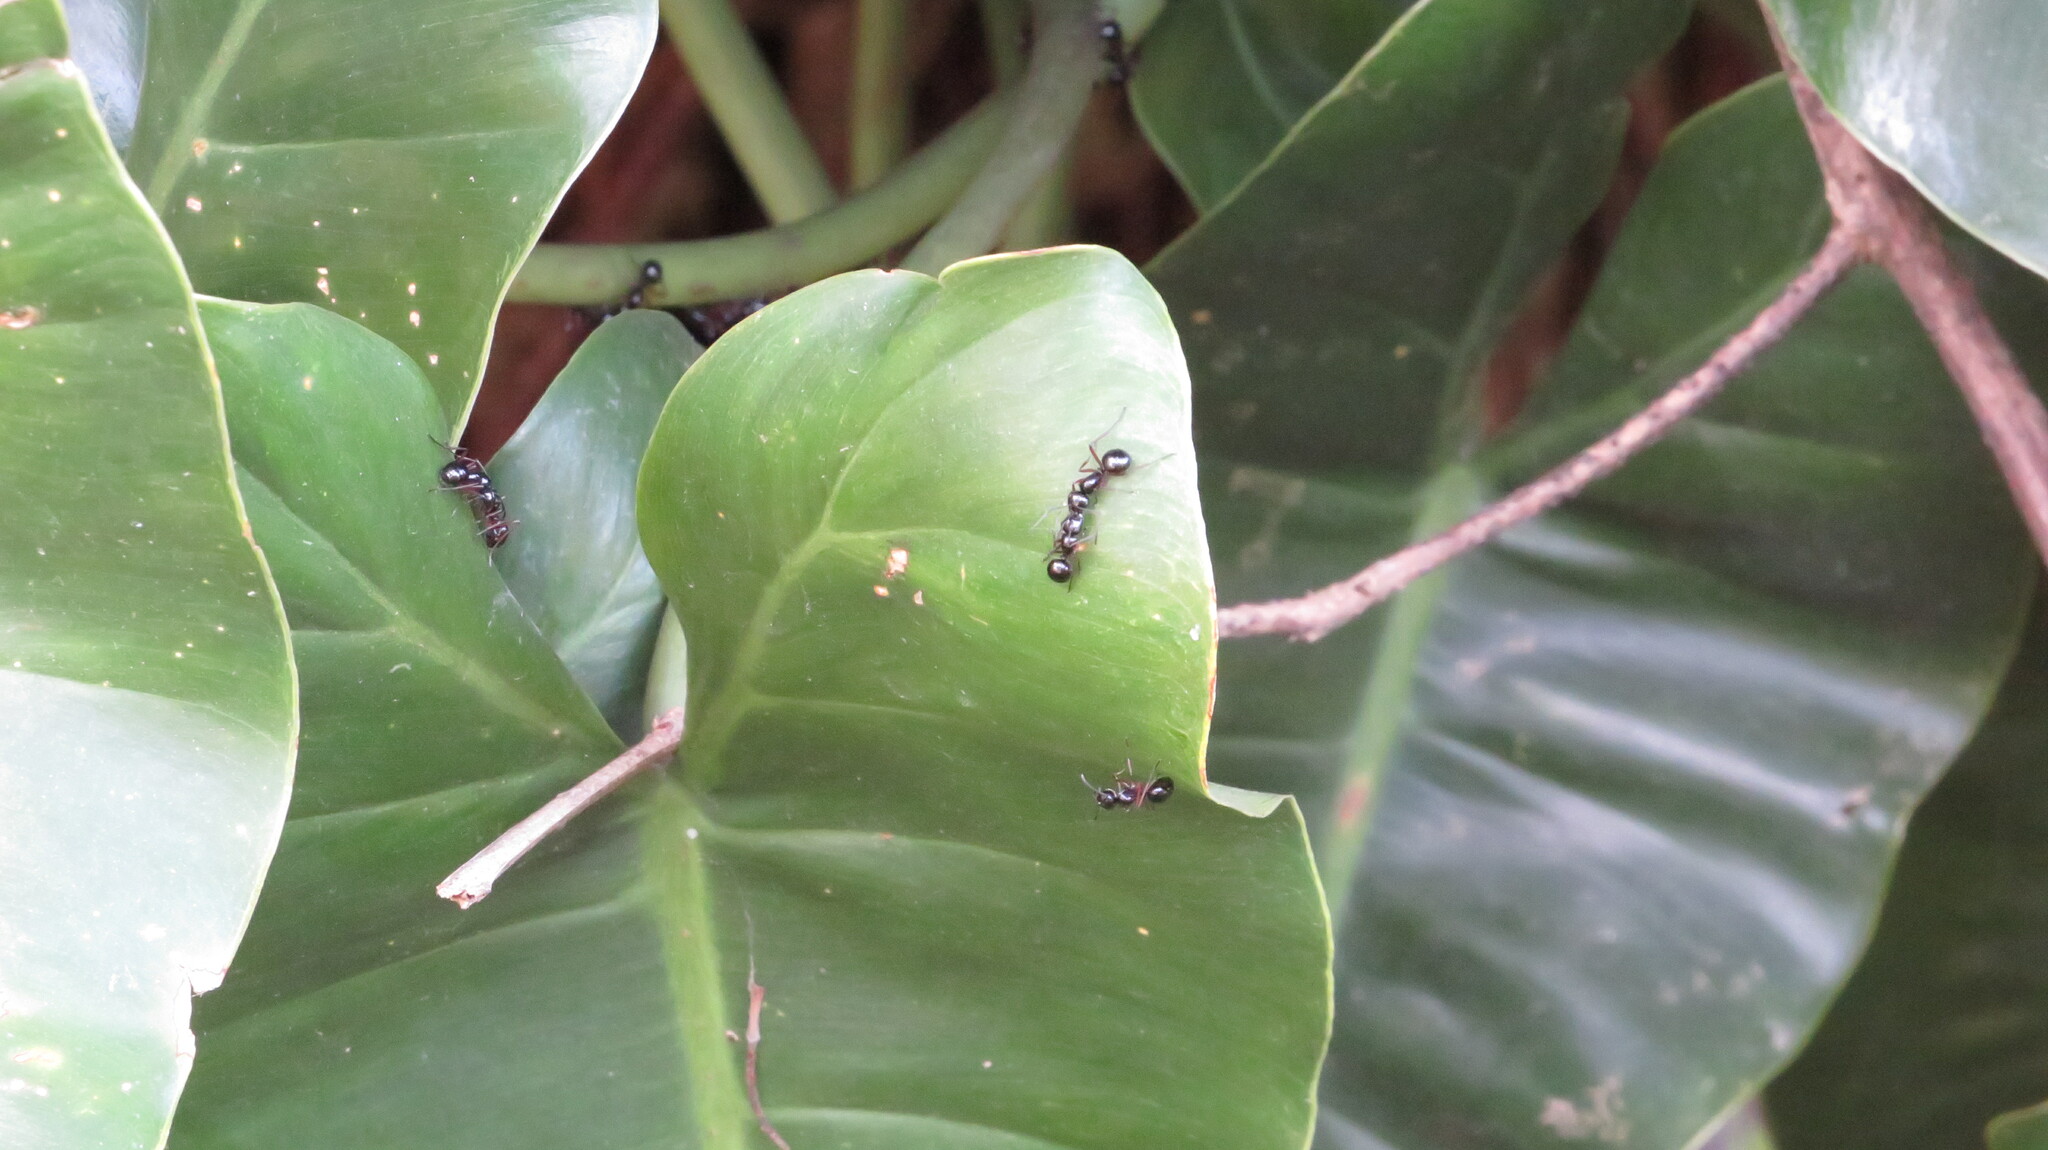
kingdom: Animalia
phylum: Arthropoda
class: Insecta
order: Hymenoptera
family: Formicidae
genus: Polyrhachis
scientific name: Polyrhachis laevissima
